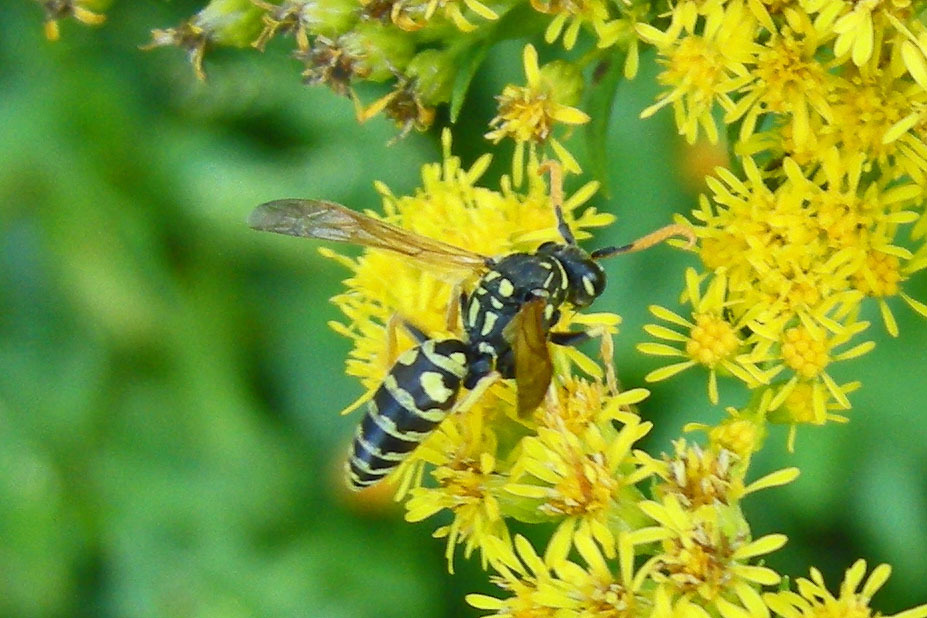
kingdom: Animalia
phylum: Arthropoda
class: Insecta
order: Hymenoptera
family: Eumenidae
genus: Polistes
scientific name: Polistes dominula
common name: Paper wasp
